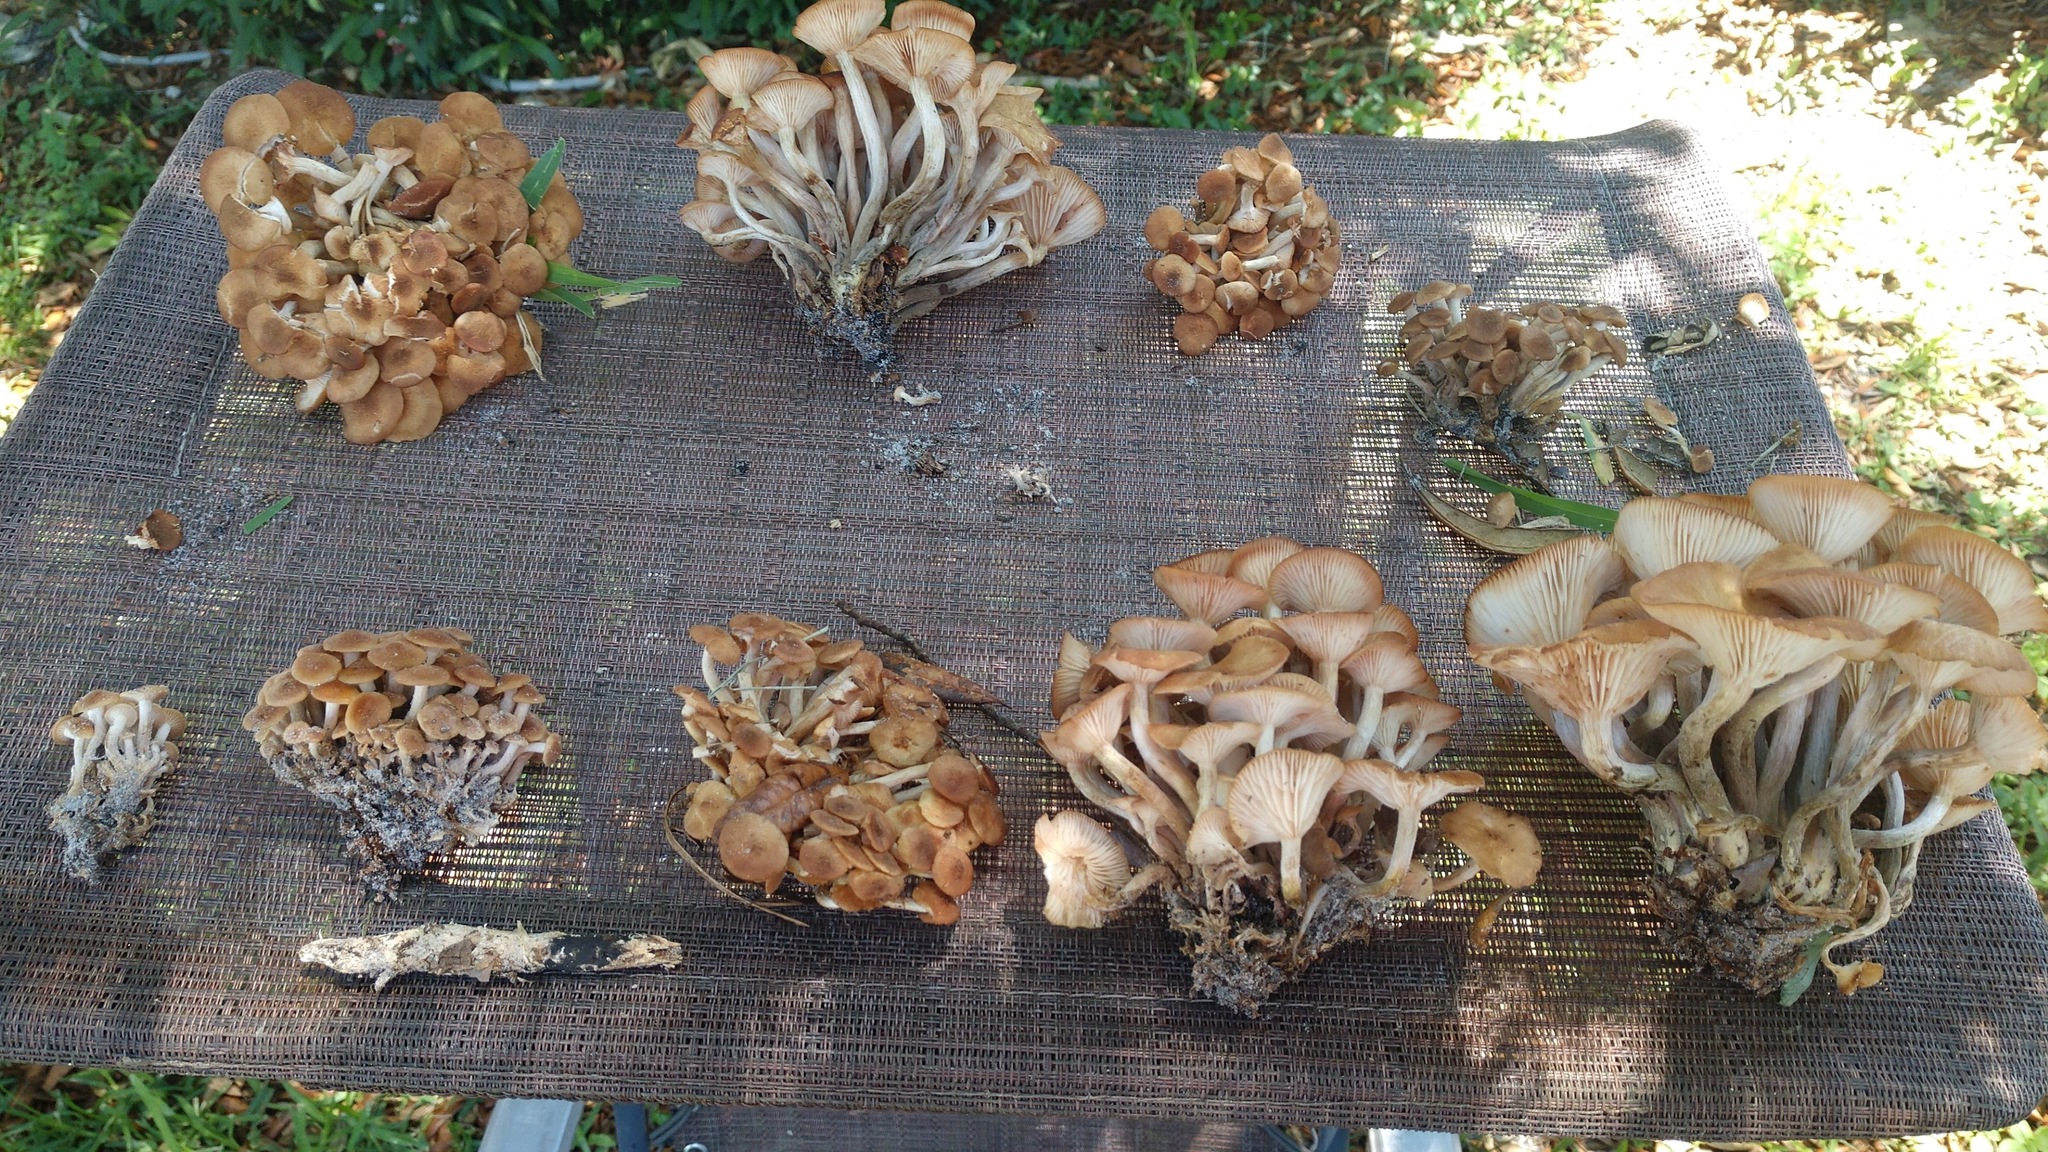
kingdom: Fungi
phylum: Basidiomycota
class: Agaricomycetes
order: Agaricales
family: Physalacriaceae
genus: Desarmillaria
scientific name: Desarmillaria caespitosa
